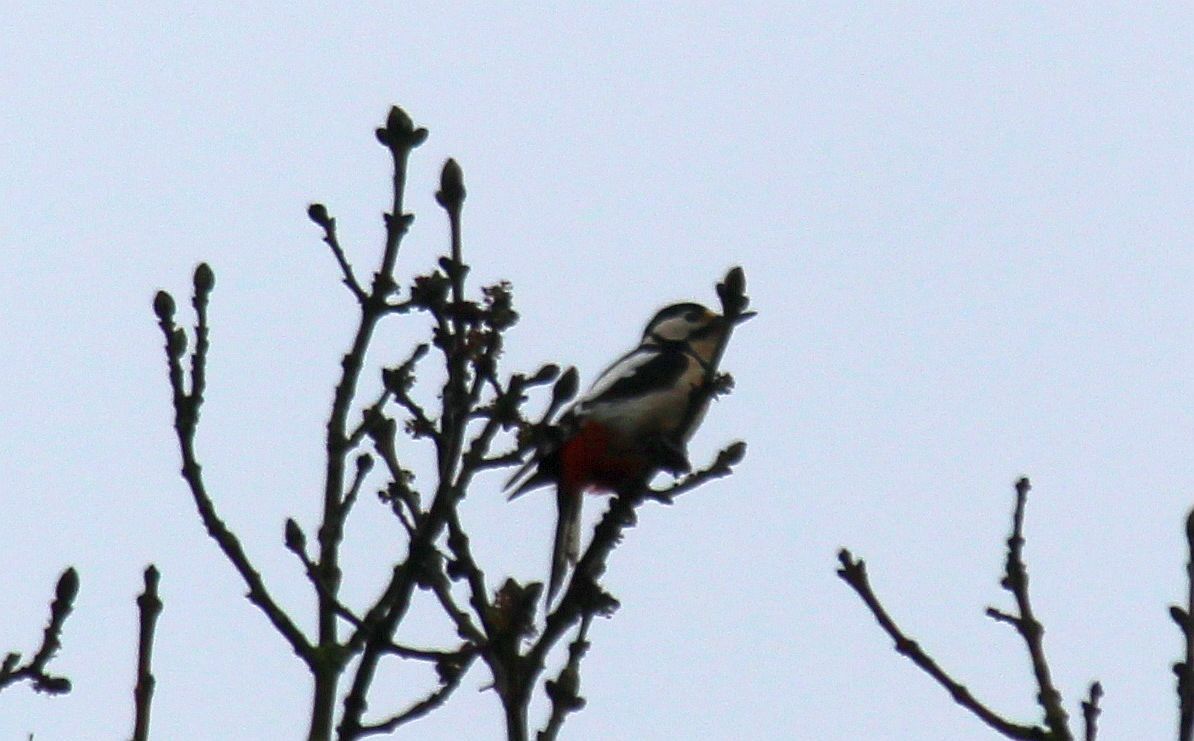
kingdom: Animalia
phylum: Chordata
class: Aves
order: Piciformes
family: Picidae
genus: Dendrocopos
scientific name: Dendrocopos major
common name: Great spotted woodpecker
